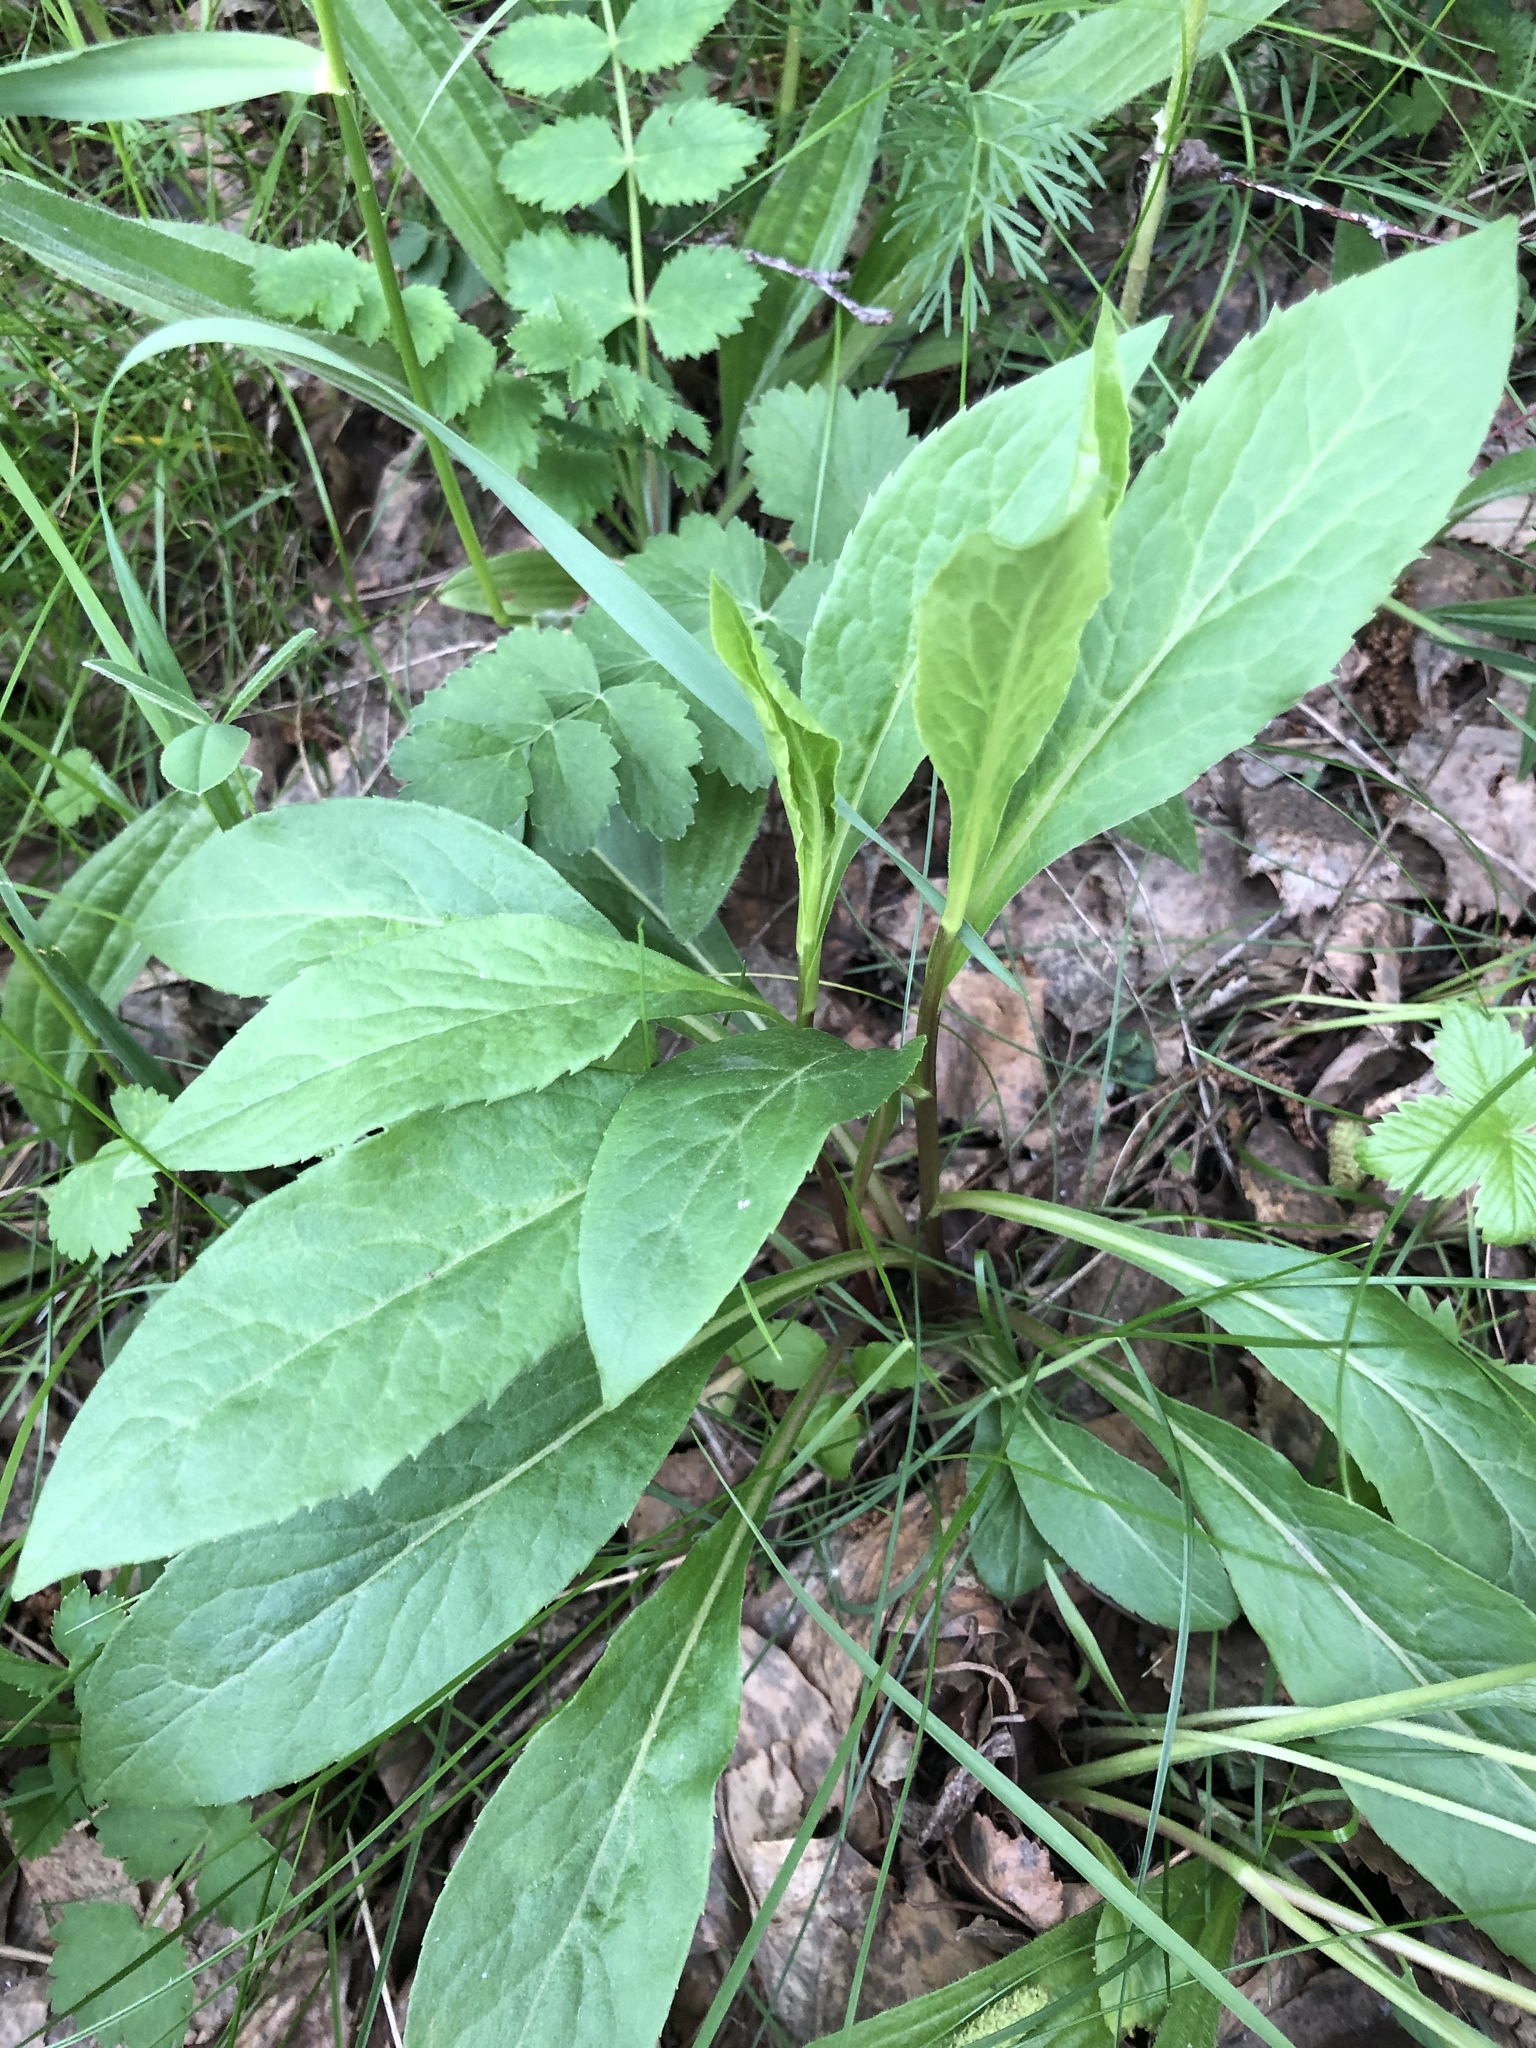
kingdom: Plantae
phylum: Tracheophyta
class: Magnoliopsida
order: Asterales
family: Asteraceae
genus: Solidago
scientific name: Solidago virgaurea
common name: Goldenrod
